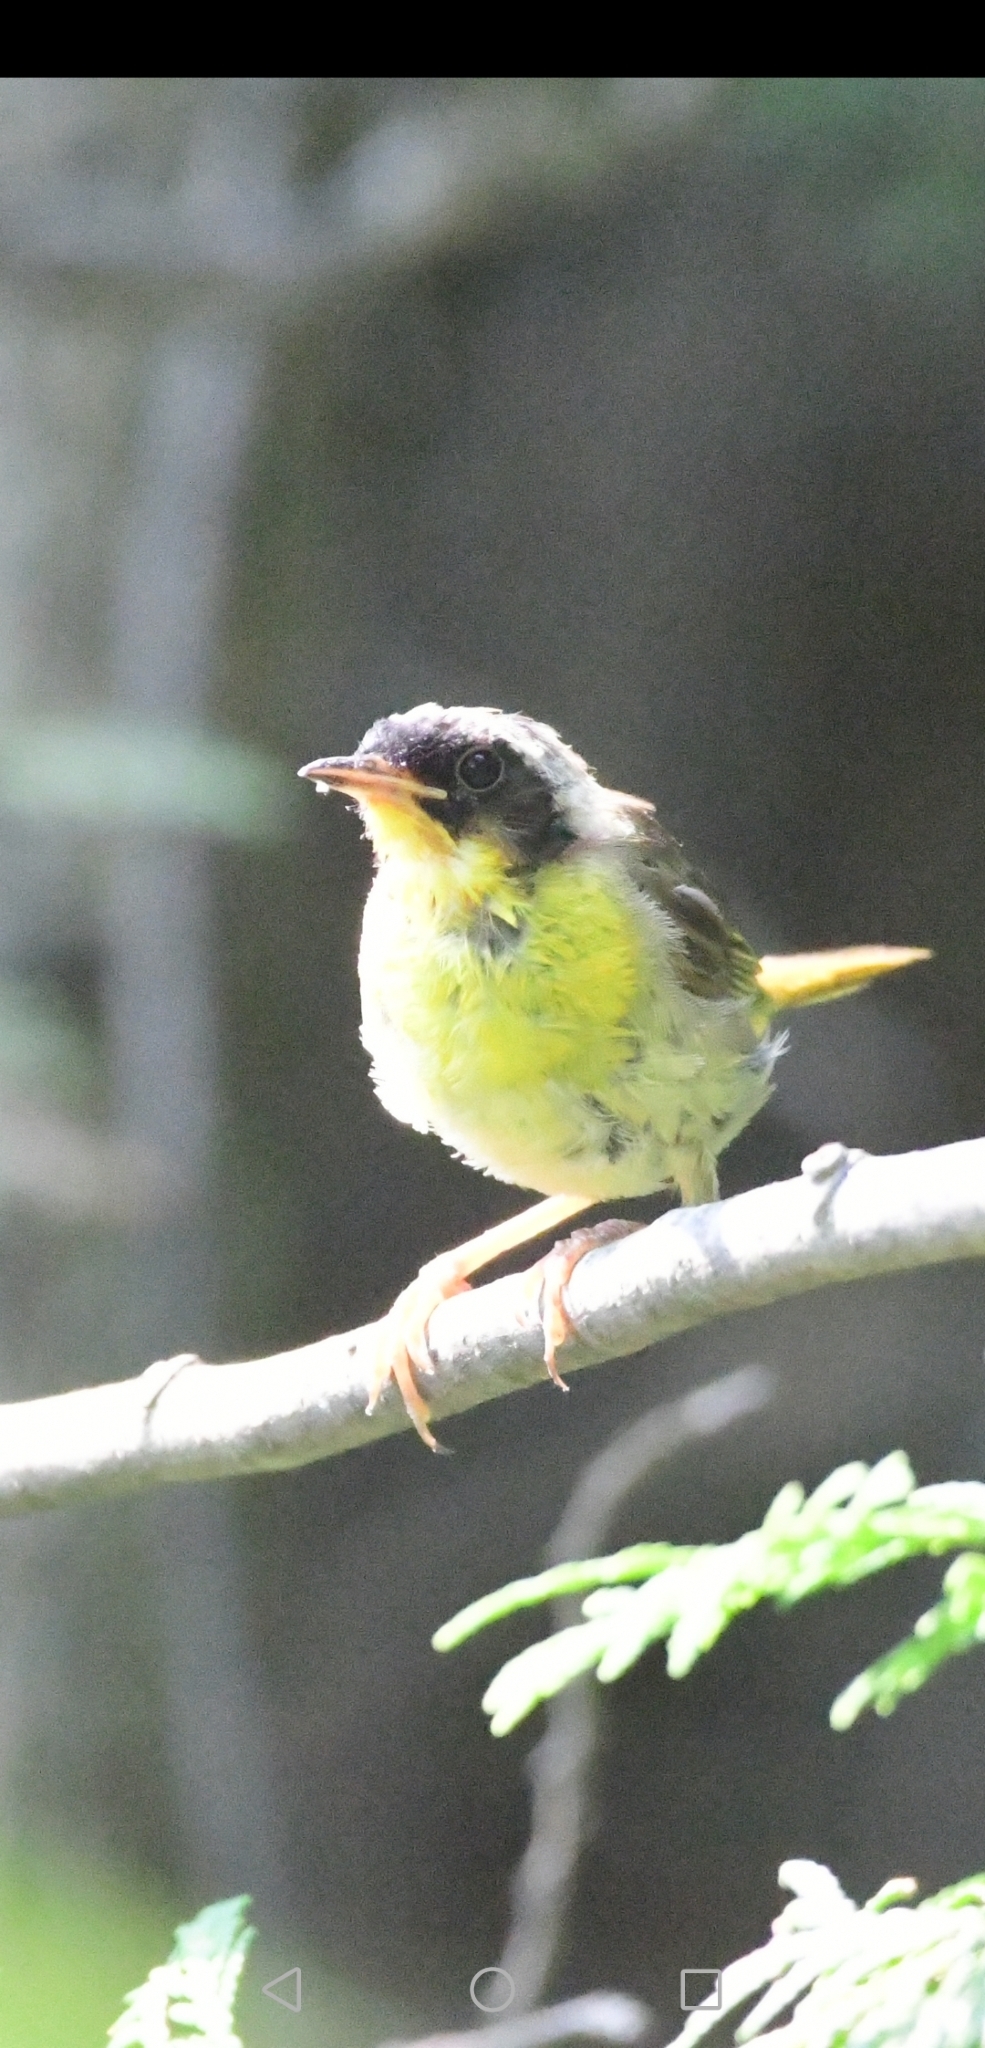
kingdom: Animalia
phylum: Chordata
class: Aves
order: Passeriformes
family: Parulidae
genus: Geothlypis
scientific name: Geothlypis trichas
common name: Common yellowthroat
